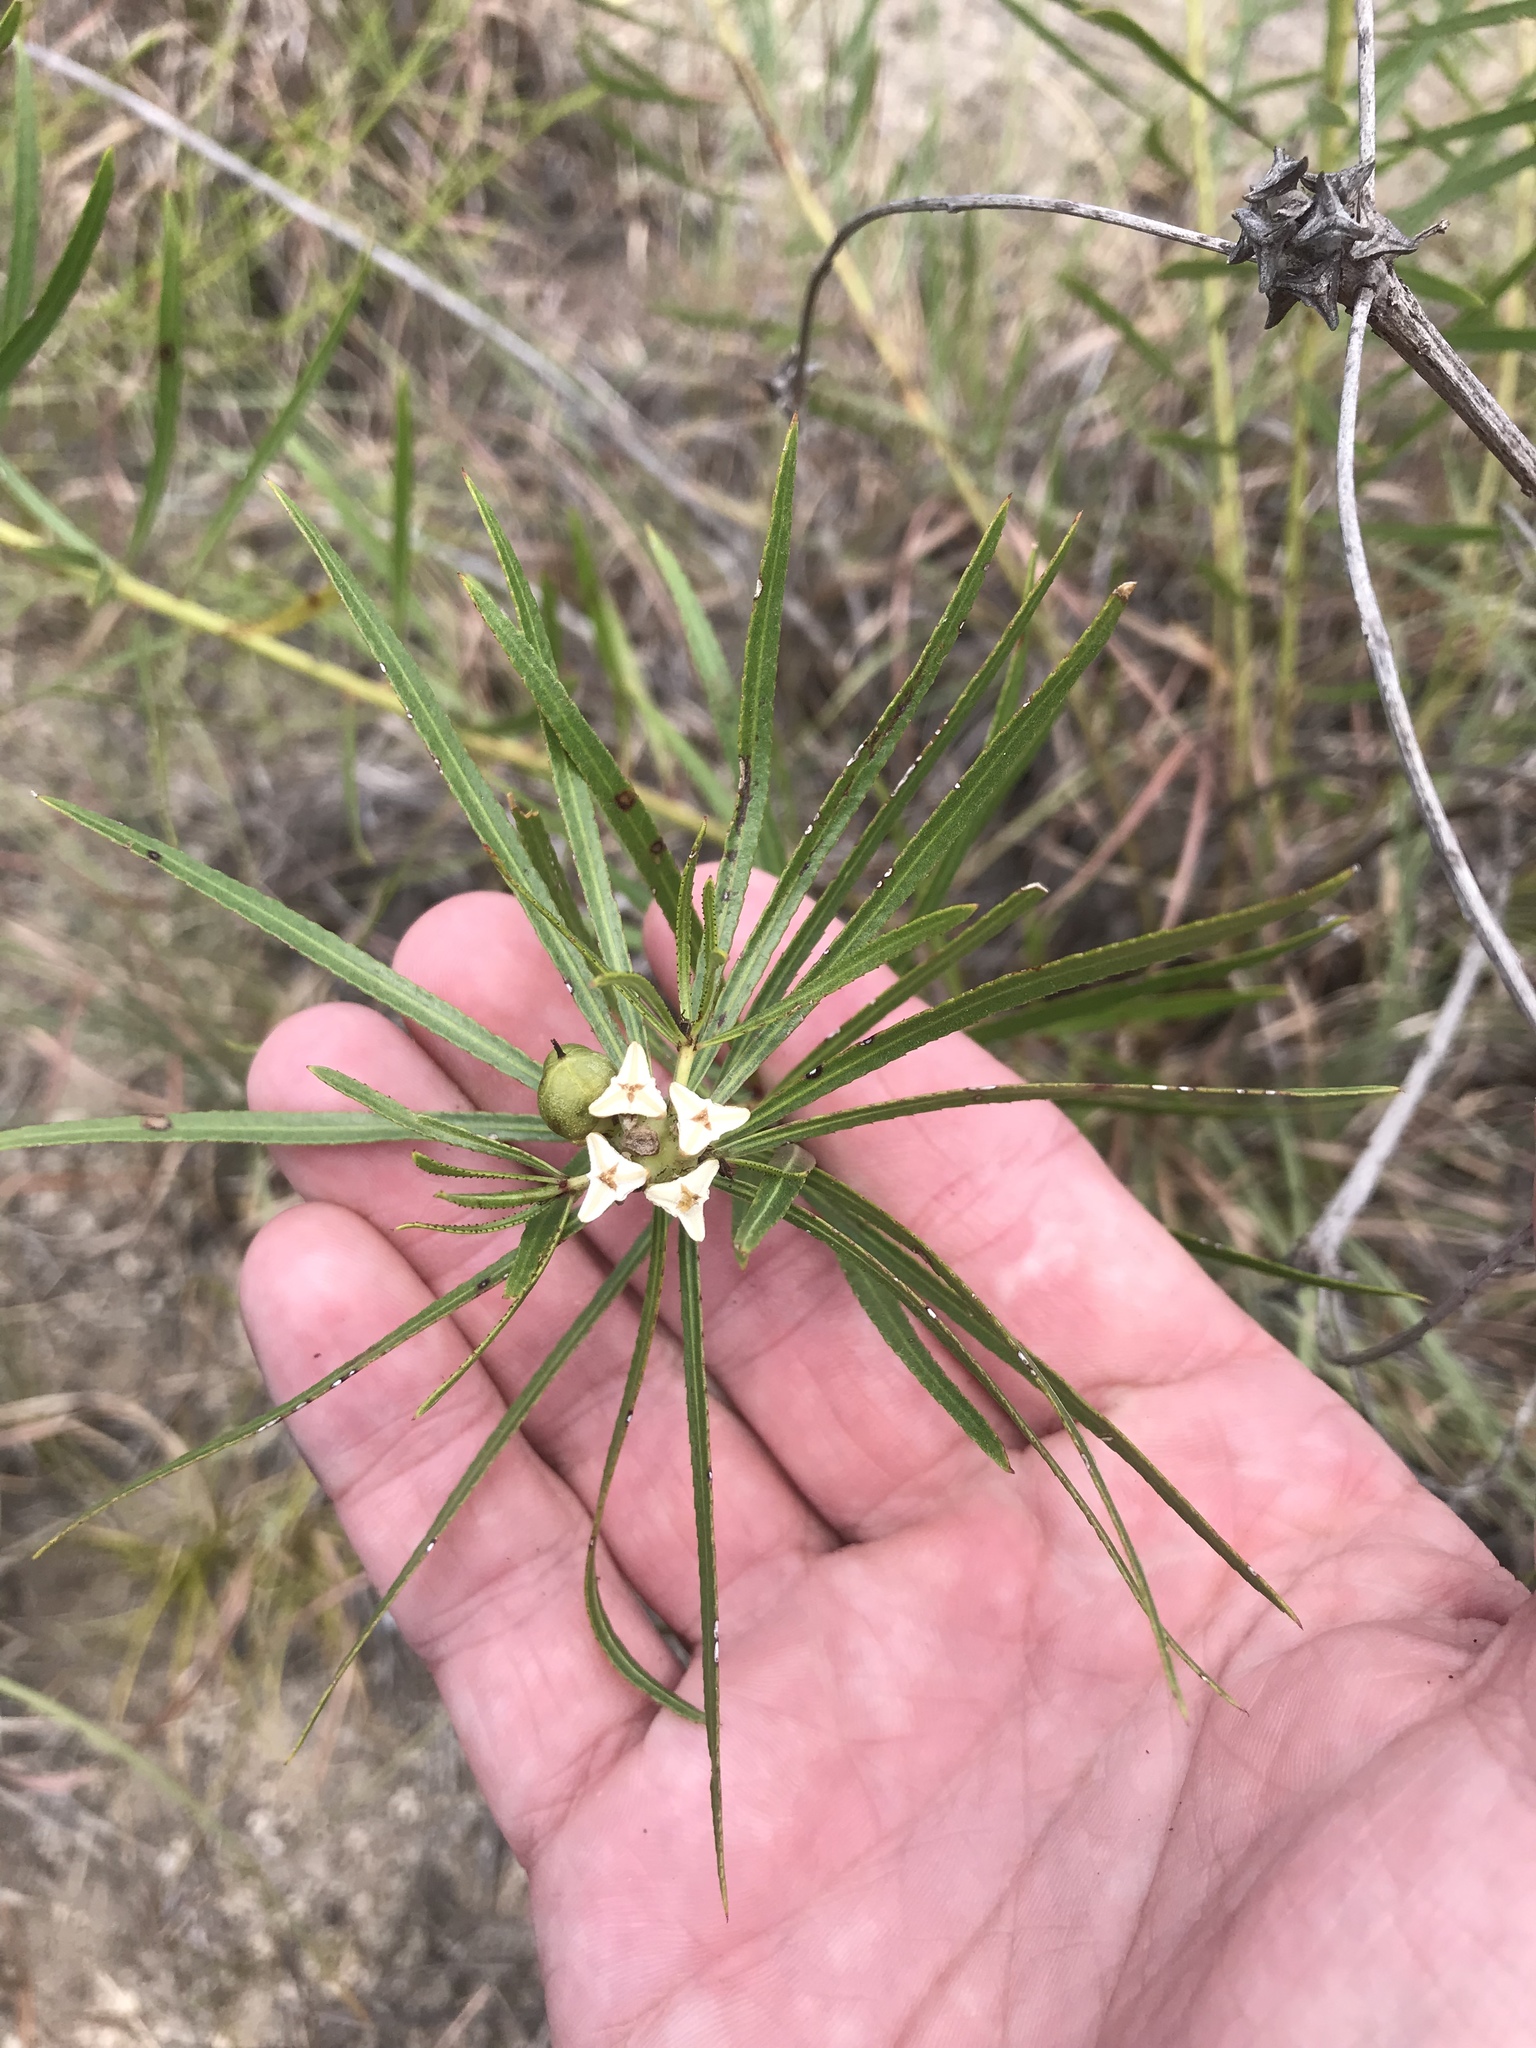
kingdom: Plantae
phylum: Tracheophyta
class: Magnoliopsida
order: Malpighiales
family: Euphorbiaceae
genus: Stillingia
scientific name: Stillingia texana
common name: Texas stillingia
